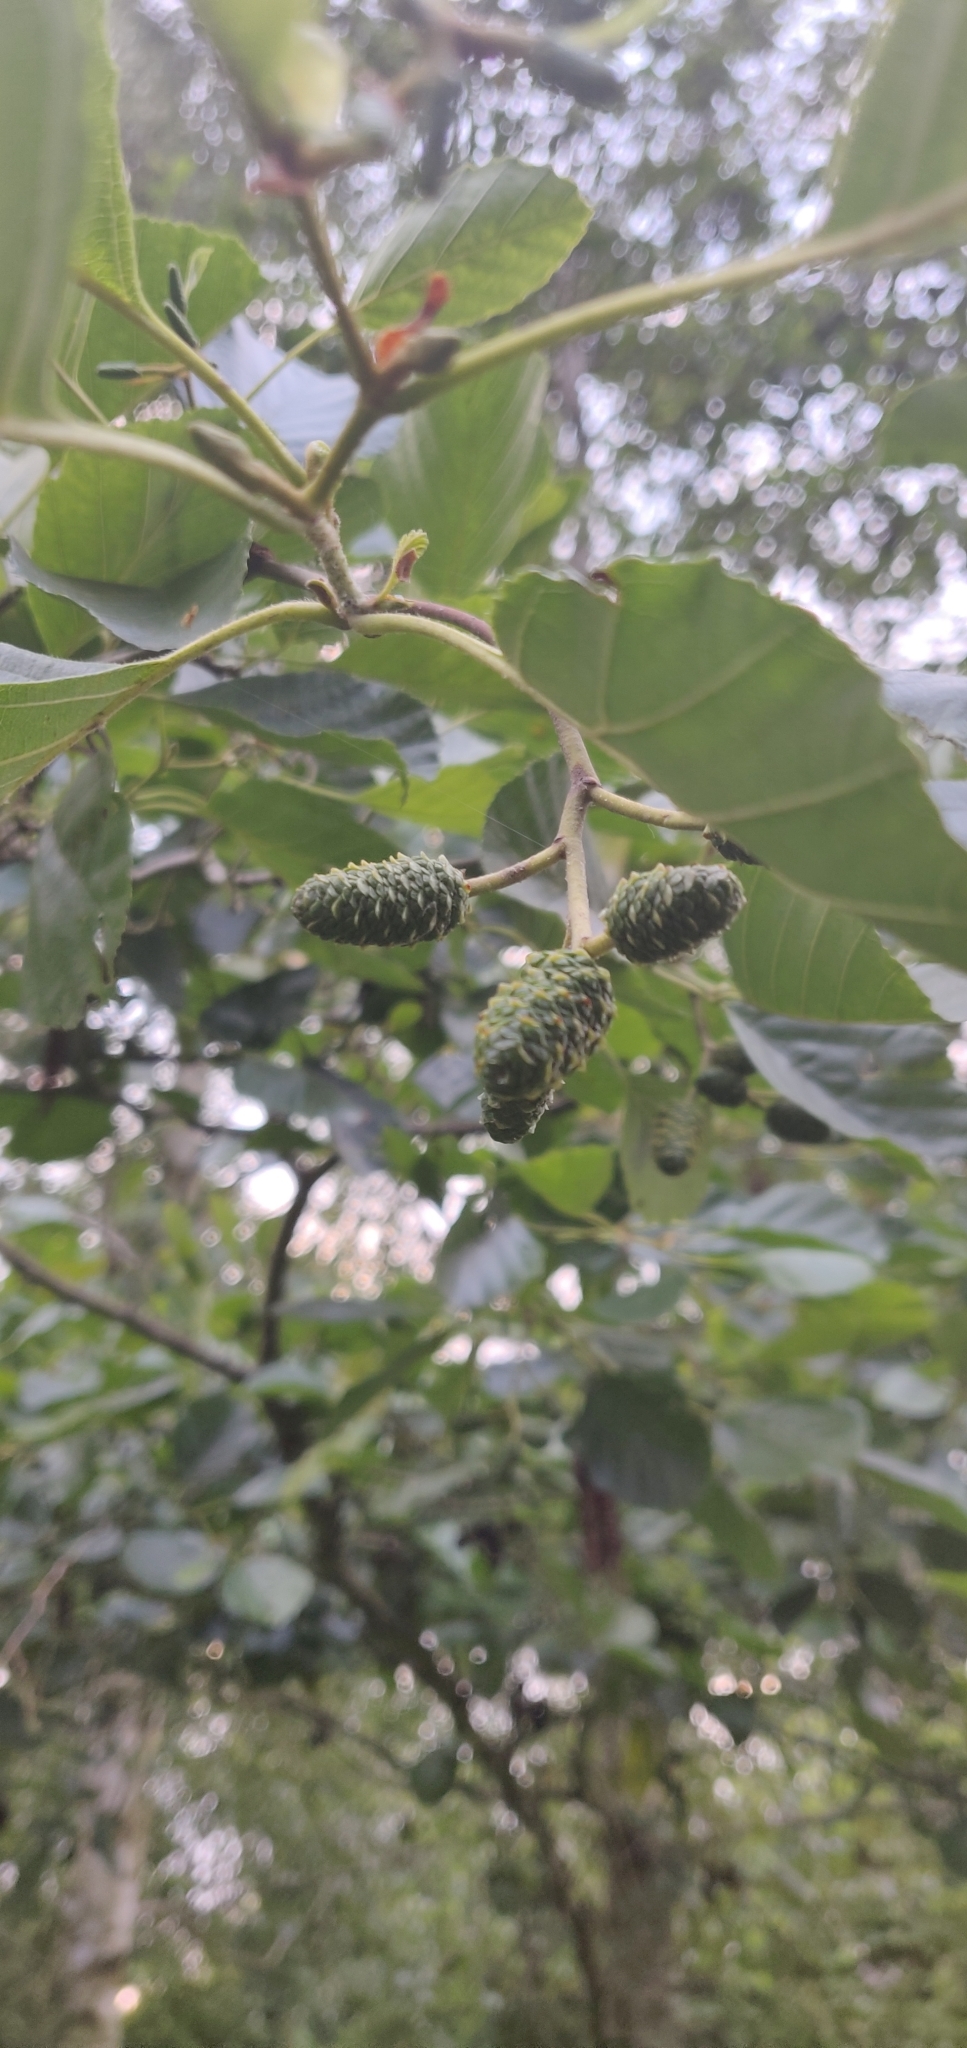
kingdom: Plantae
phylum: Tracheophyta
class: Magnoliopsida
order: Fagales
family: Betulaceae
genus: Alnus
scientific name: Alnus glutinosa
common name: Black alder
